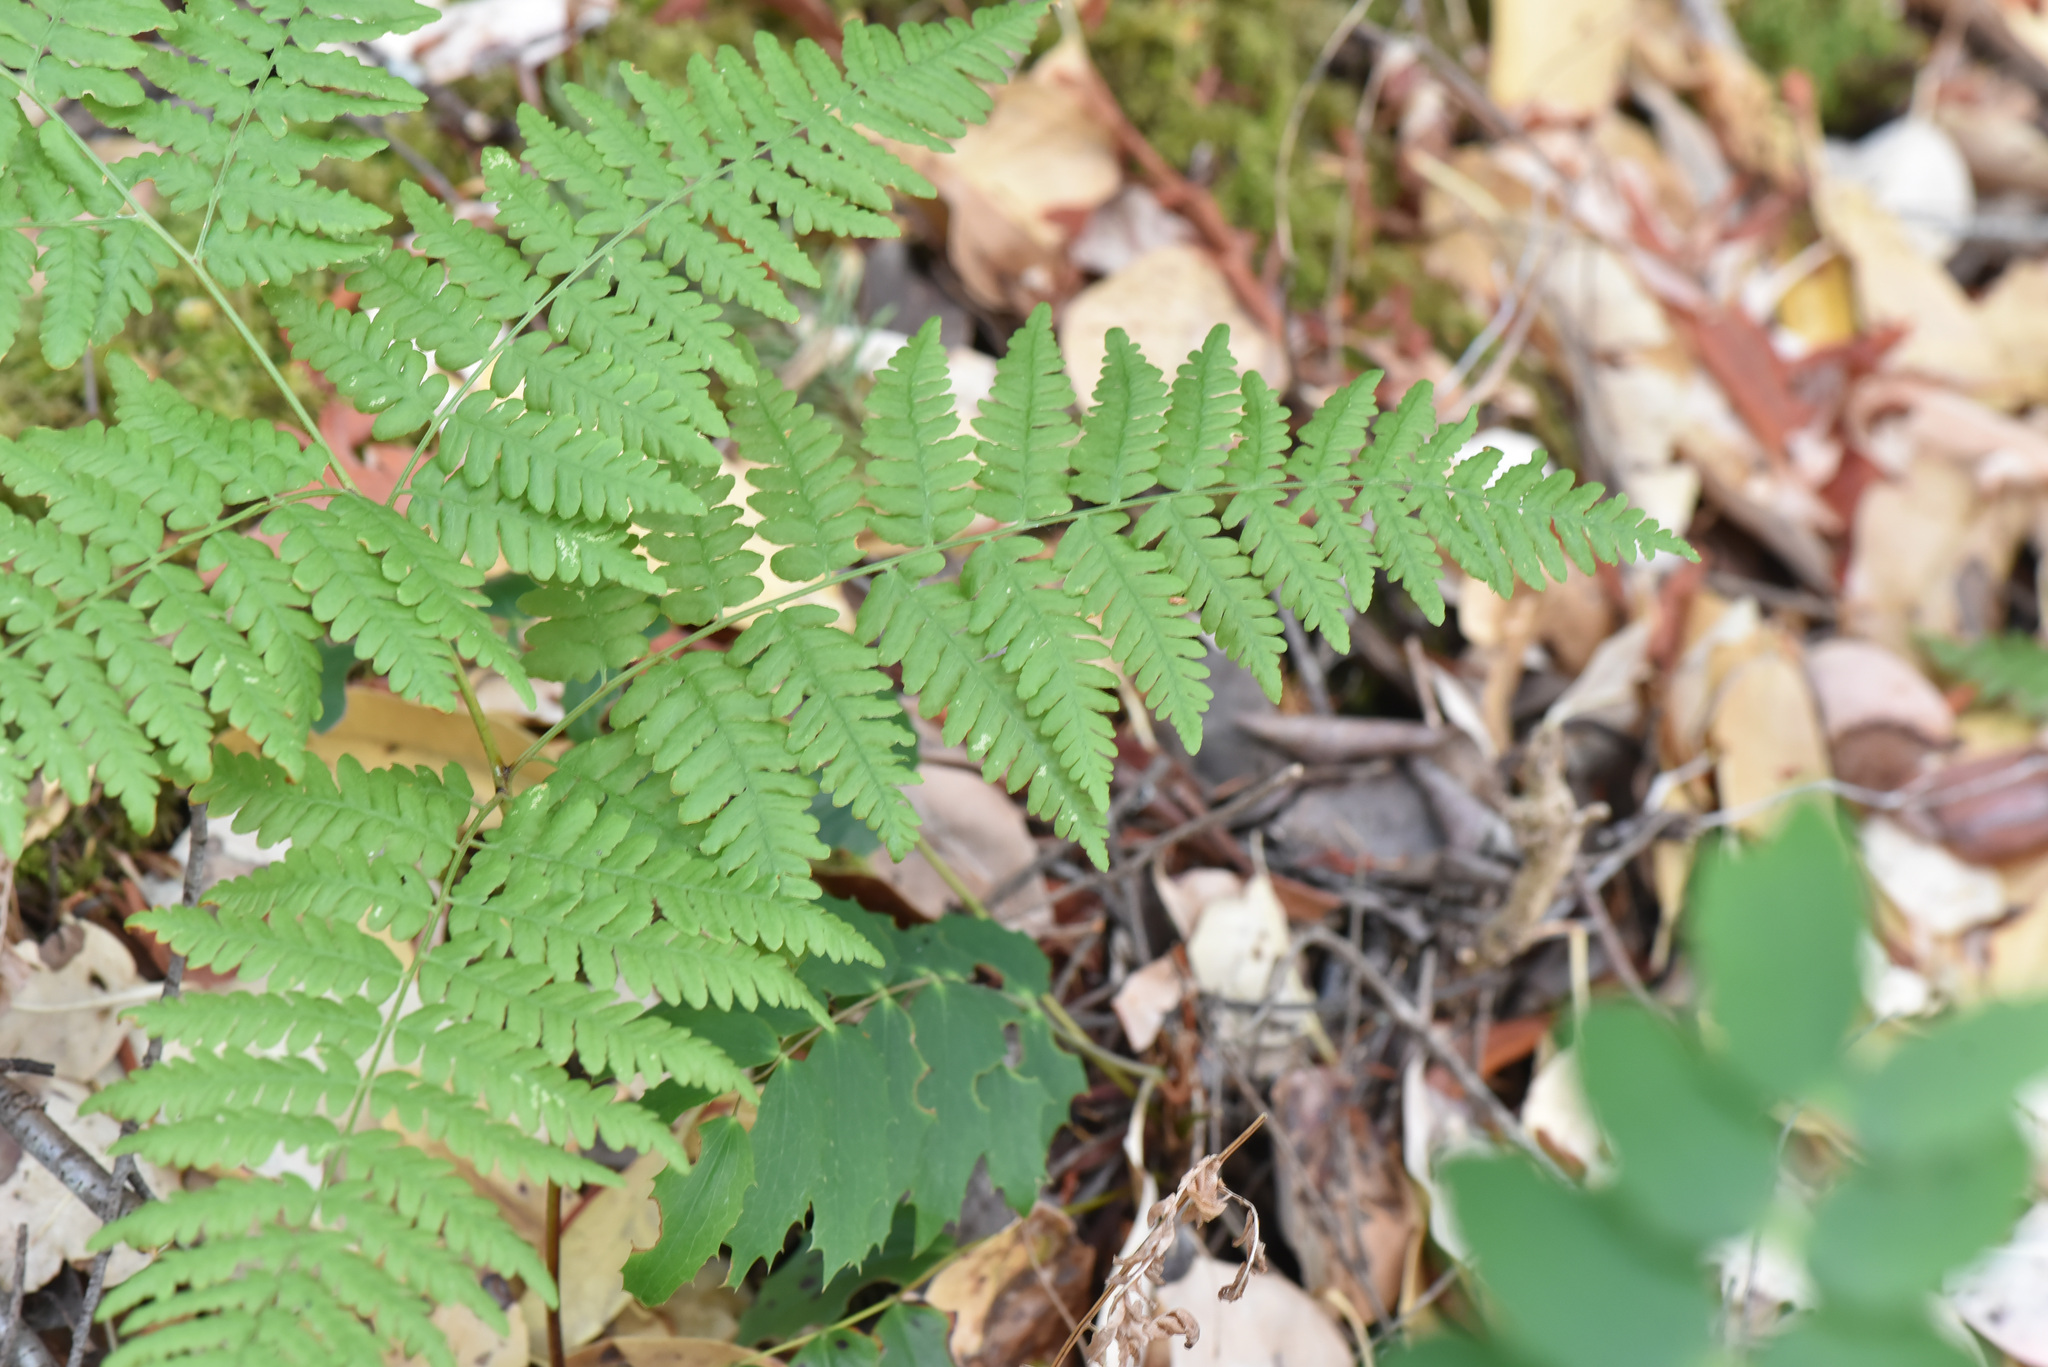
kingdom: Plantae
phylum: Tracheophyta
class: Polypodiopsida
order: Polypodiales
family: Dennstaedtiaceae
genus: Pteridium
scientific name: Pteridium aquilinum
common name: Bracken
